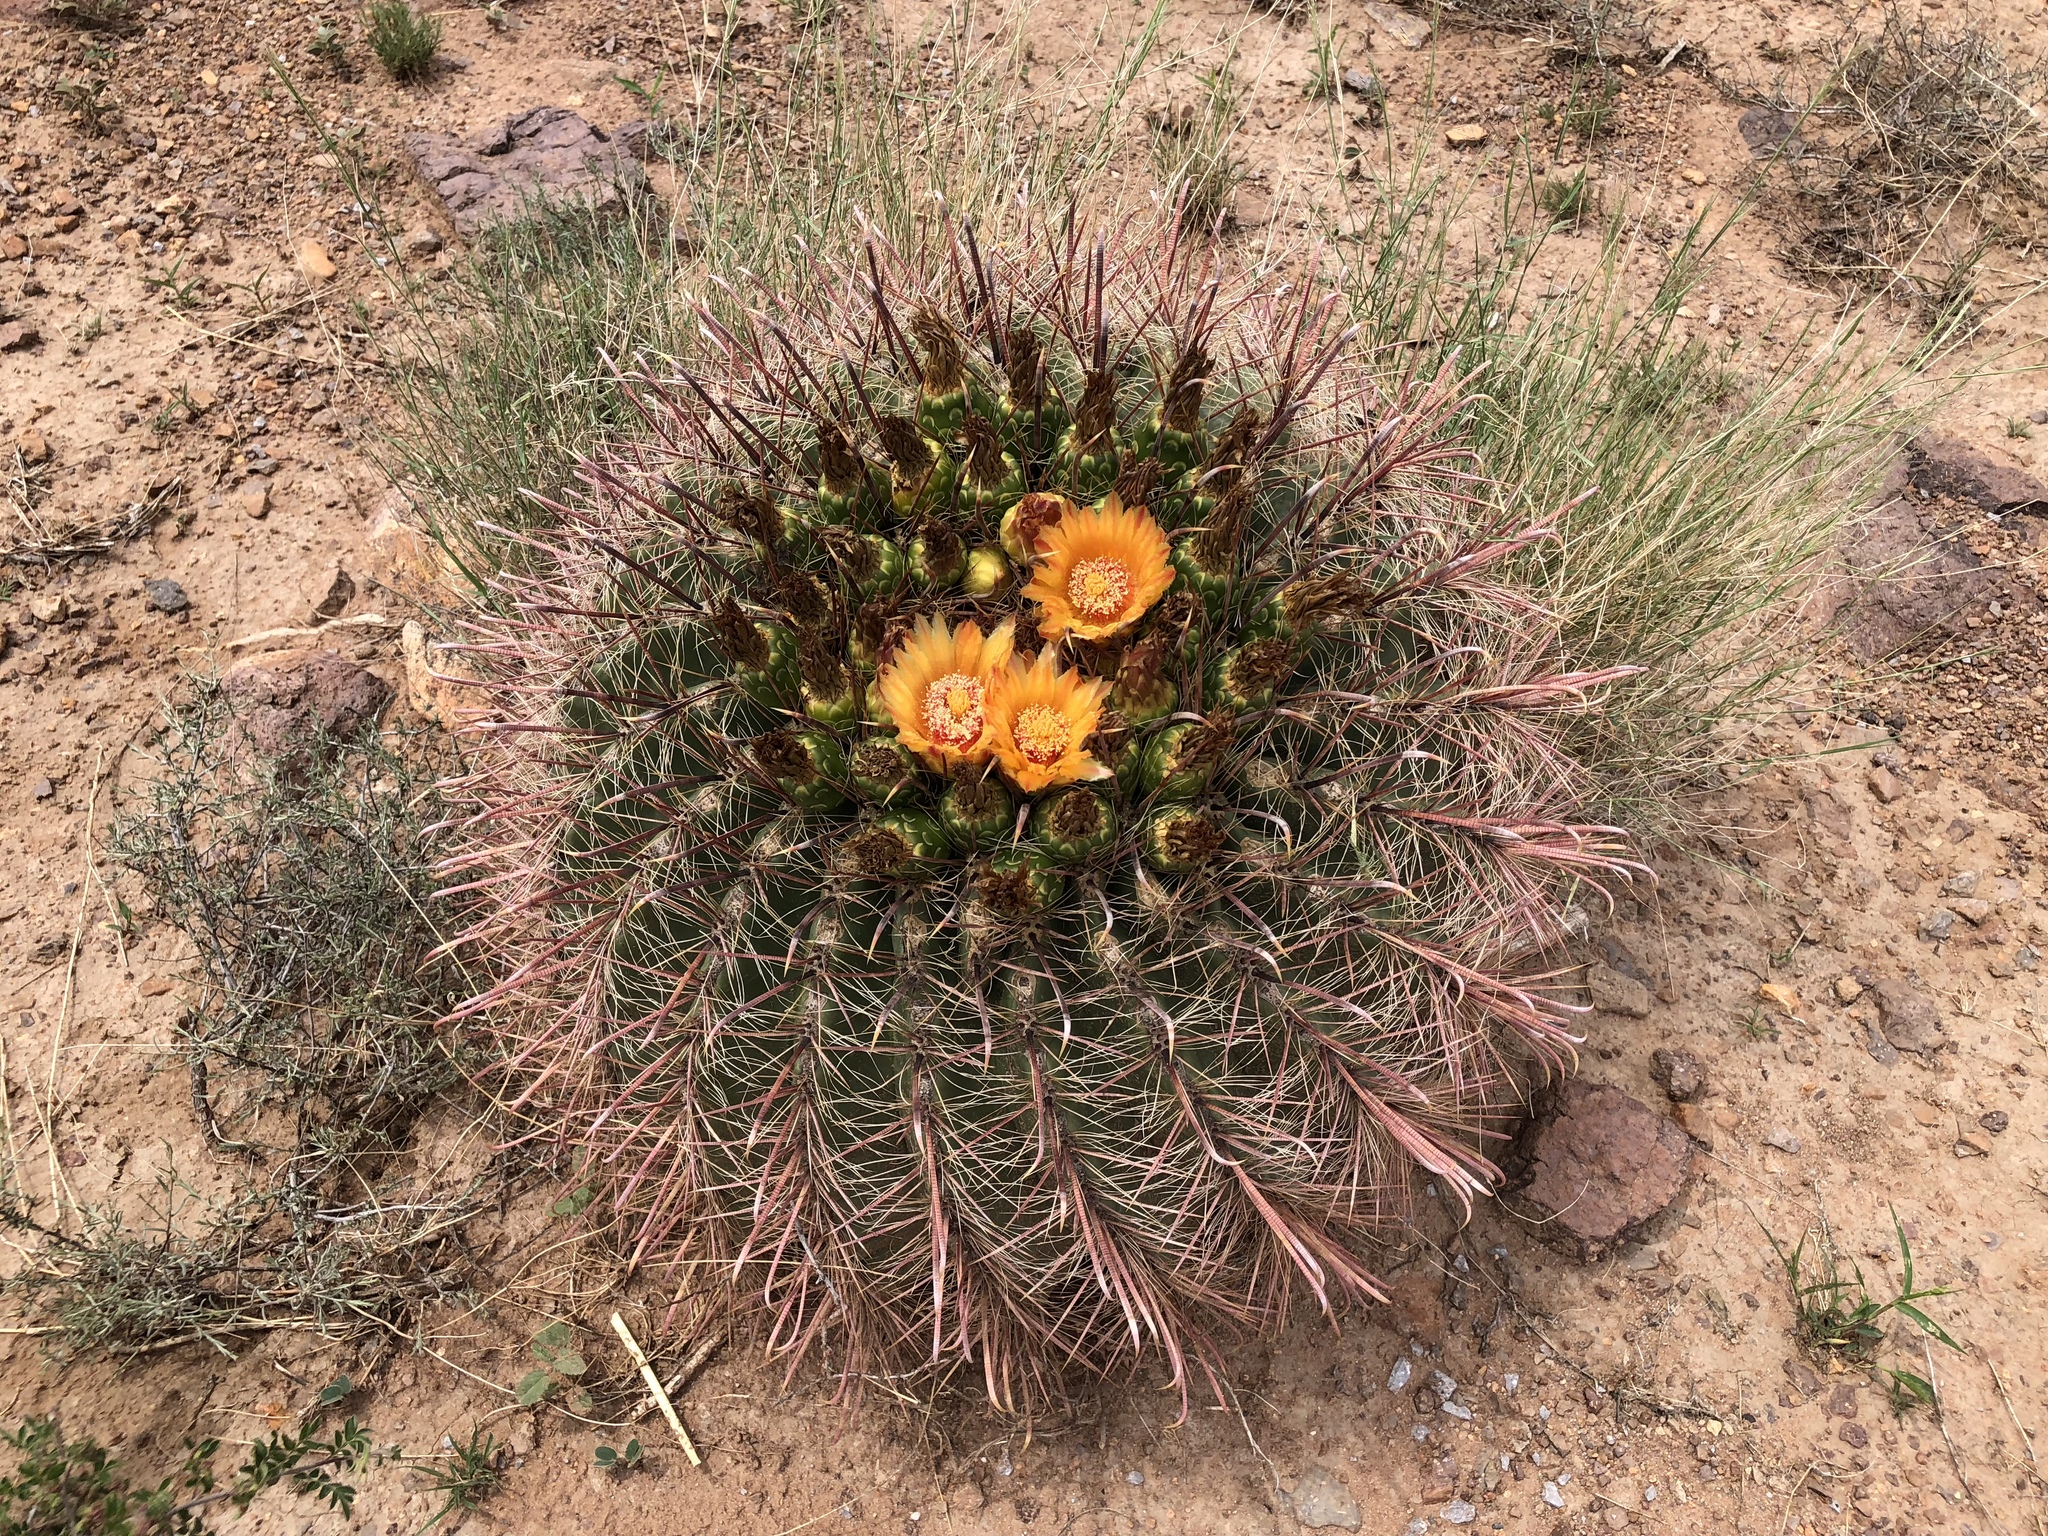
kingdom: Plantae
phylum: Tracheophyta
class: Magnoliopsida
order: Caryophyllales
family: Cactaceae
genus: Ferocactus
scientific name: Ferocactus wislizeni
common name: Candy barrel cactus
